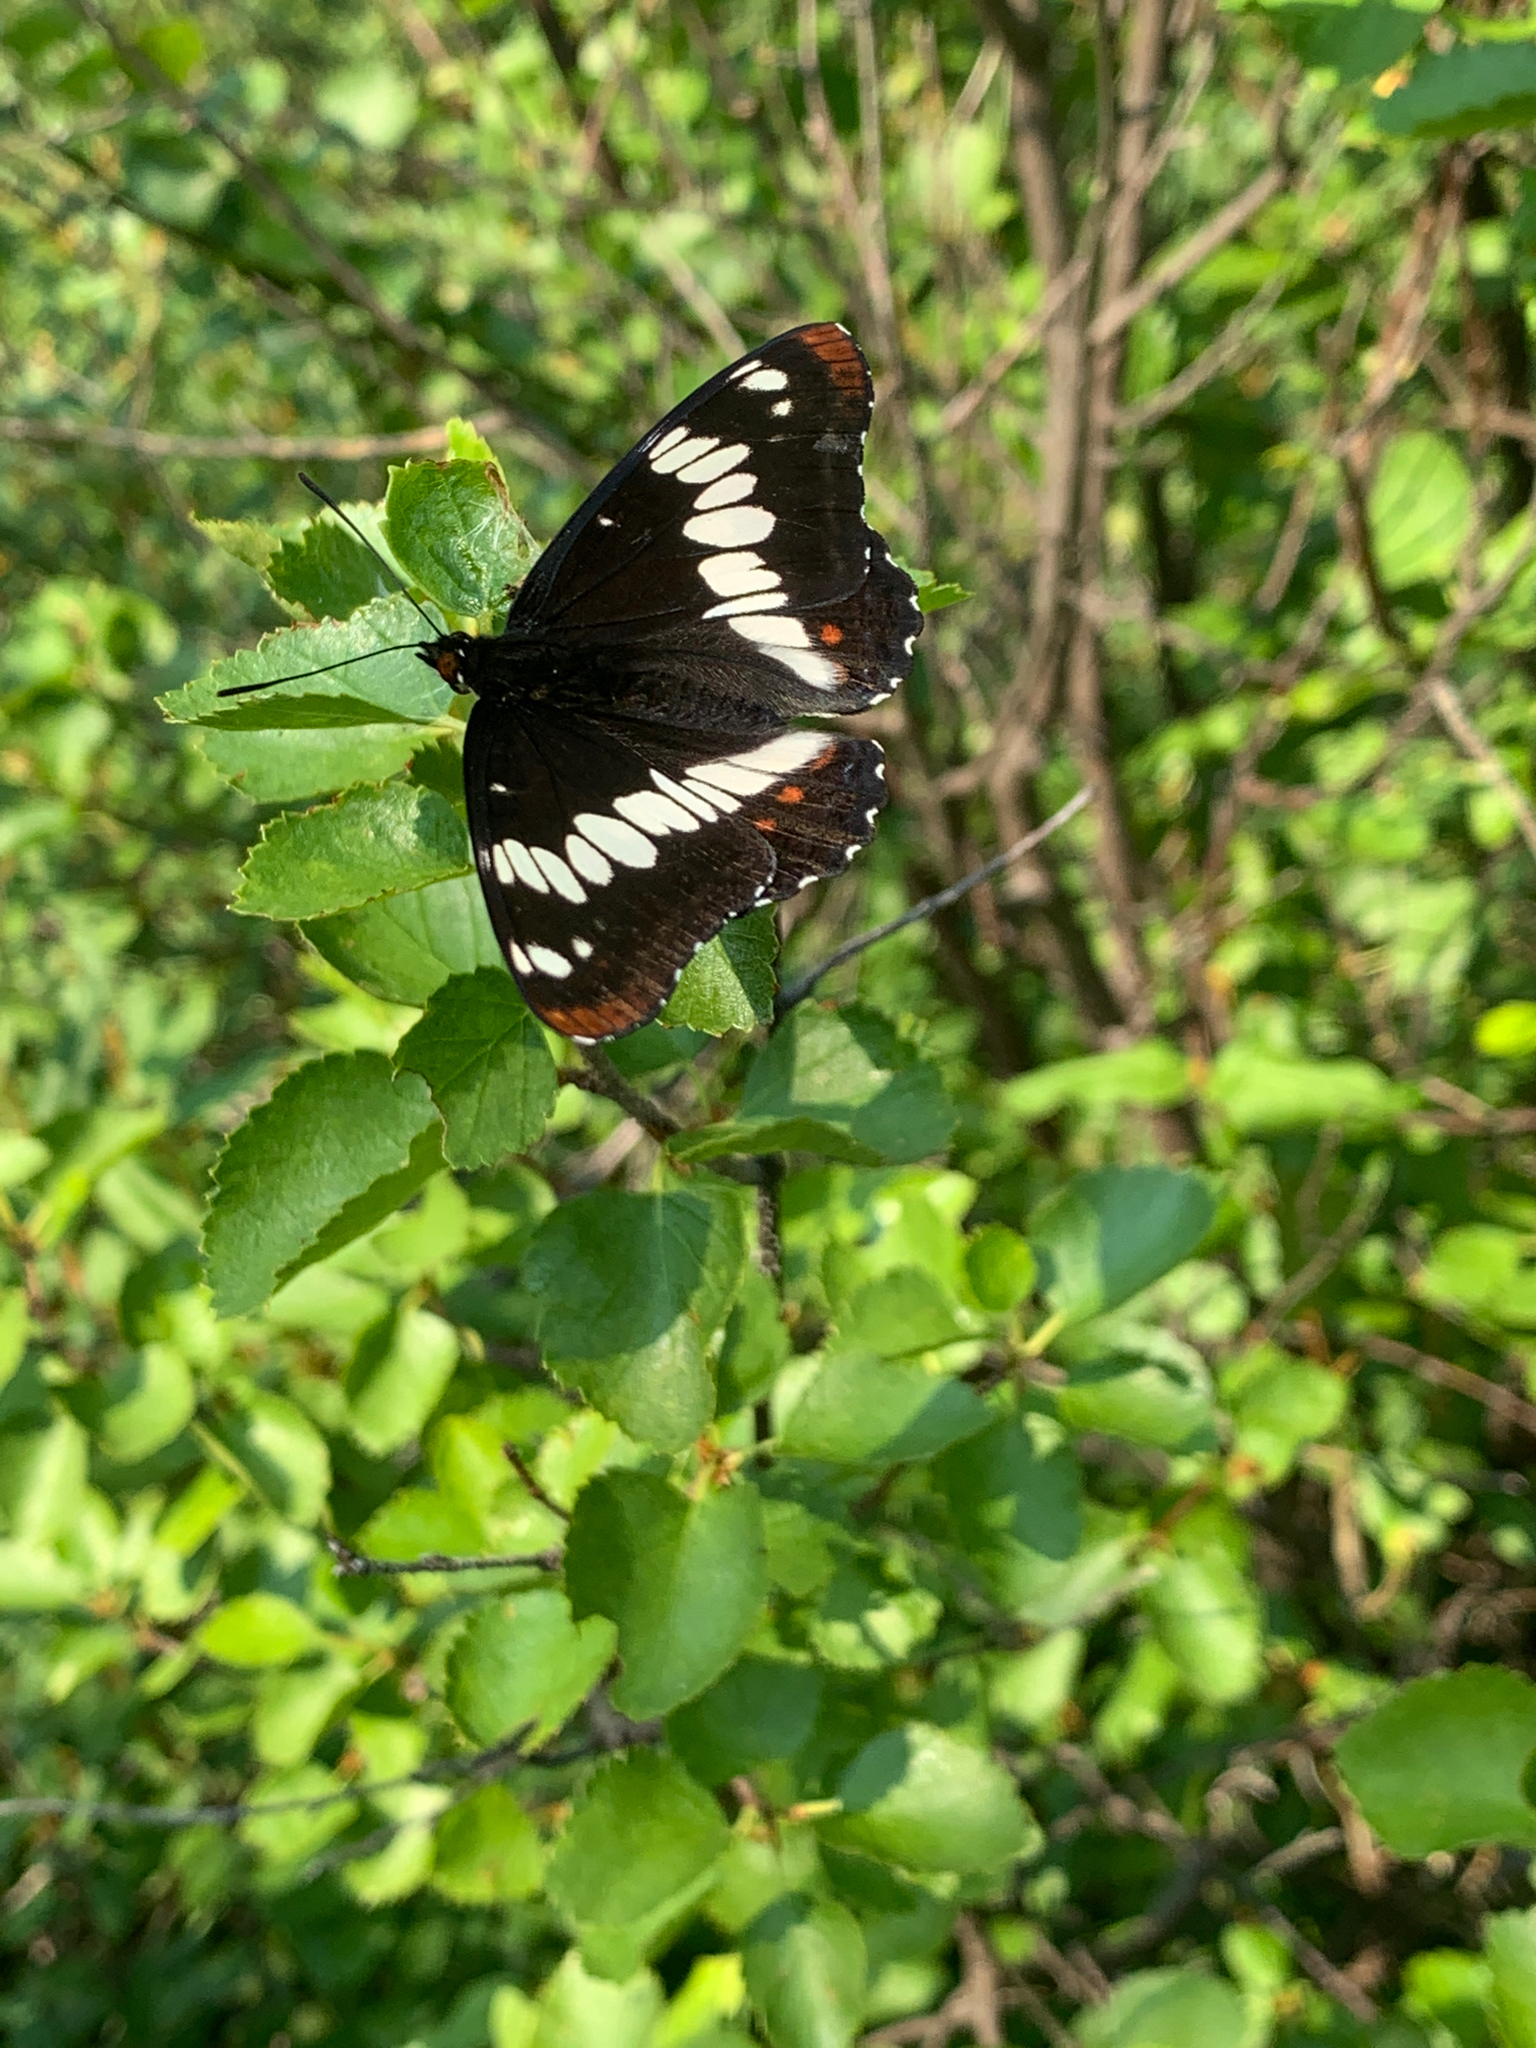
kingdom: Animalia
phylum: Arthropoda
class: Insecta
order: Lepidoptera
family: Nymphalidae
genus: Limenitis
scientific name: Limenitis lorquini
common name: Lorquin's admiral
